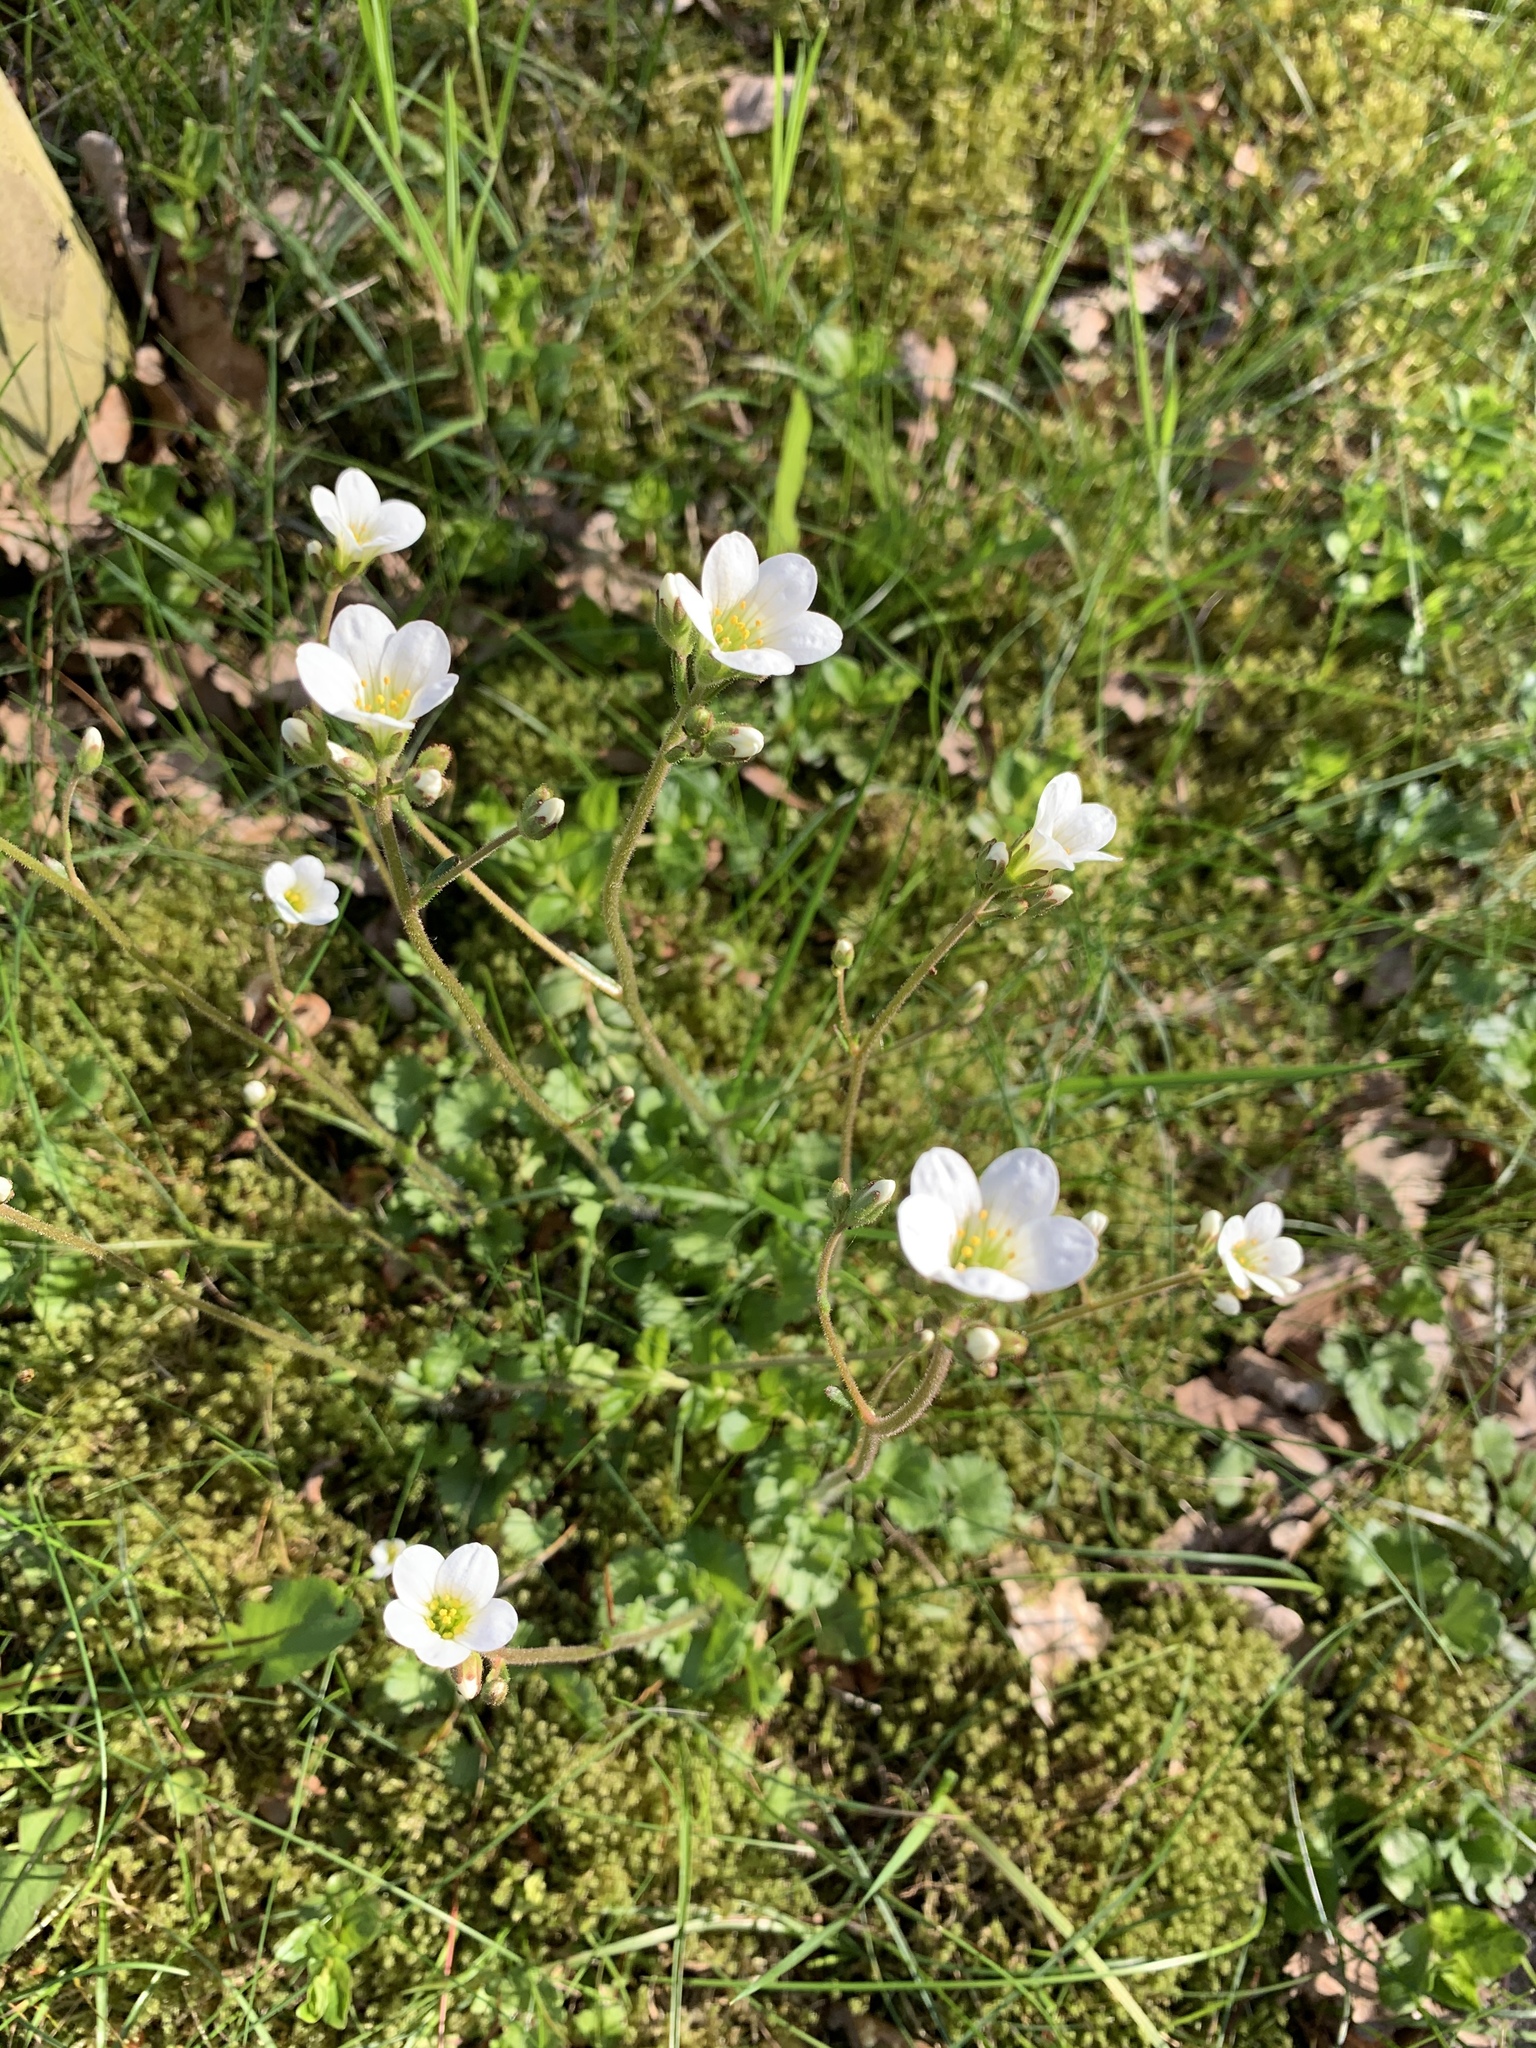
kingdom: Plantae
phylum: Tracheophyta
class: Magnoliopsida
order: Saxifragales
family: Saxifragaceae
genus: Saxifraga
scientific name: Saxifraga granulata
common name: Meadow saxifrage
